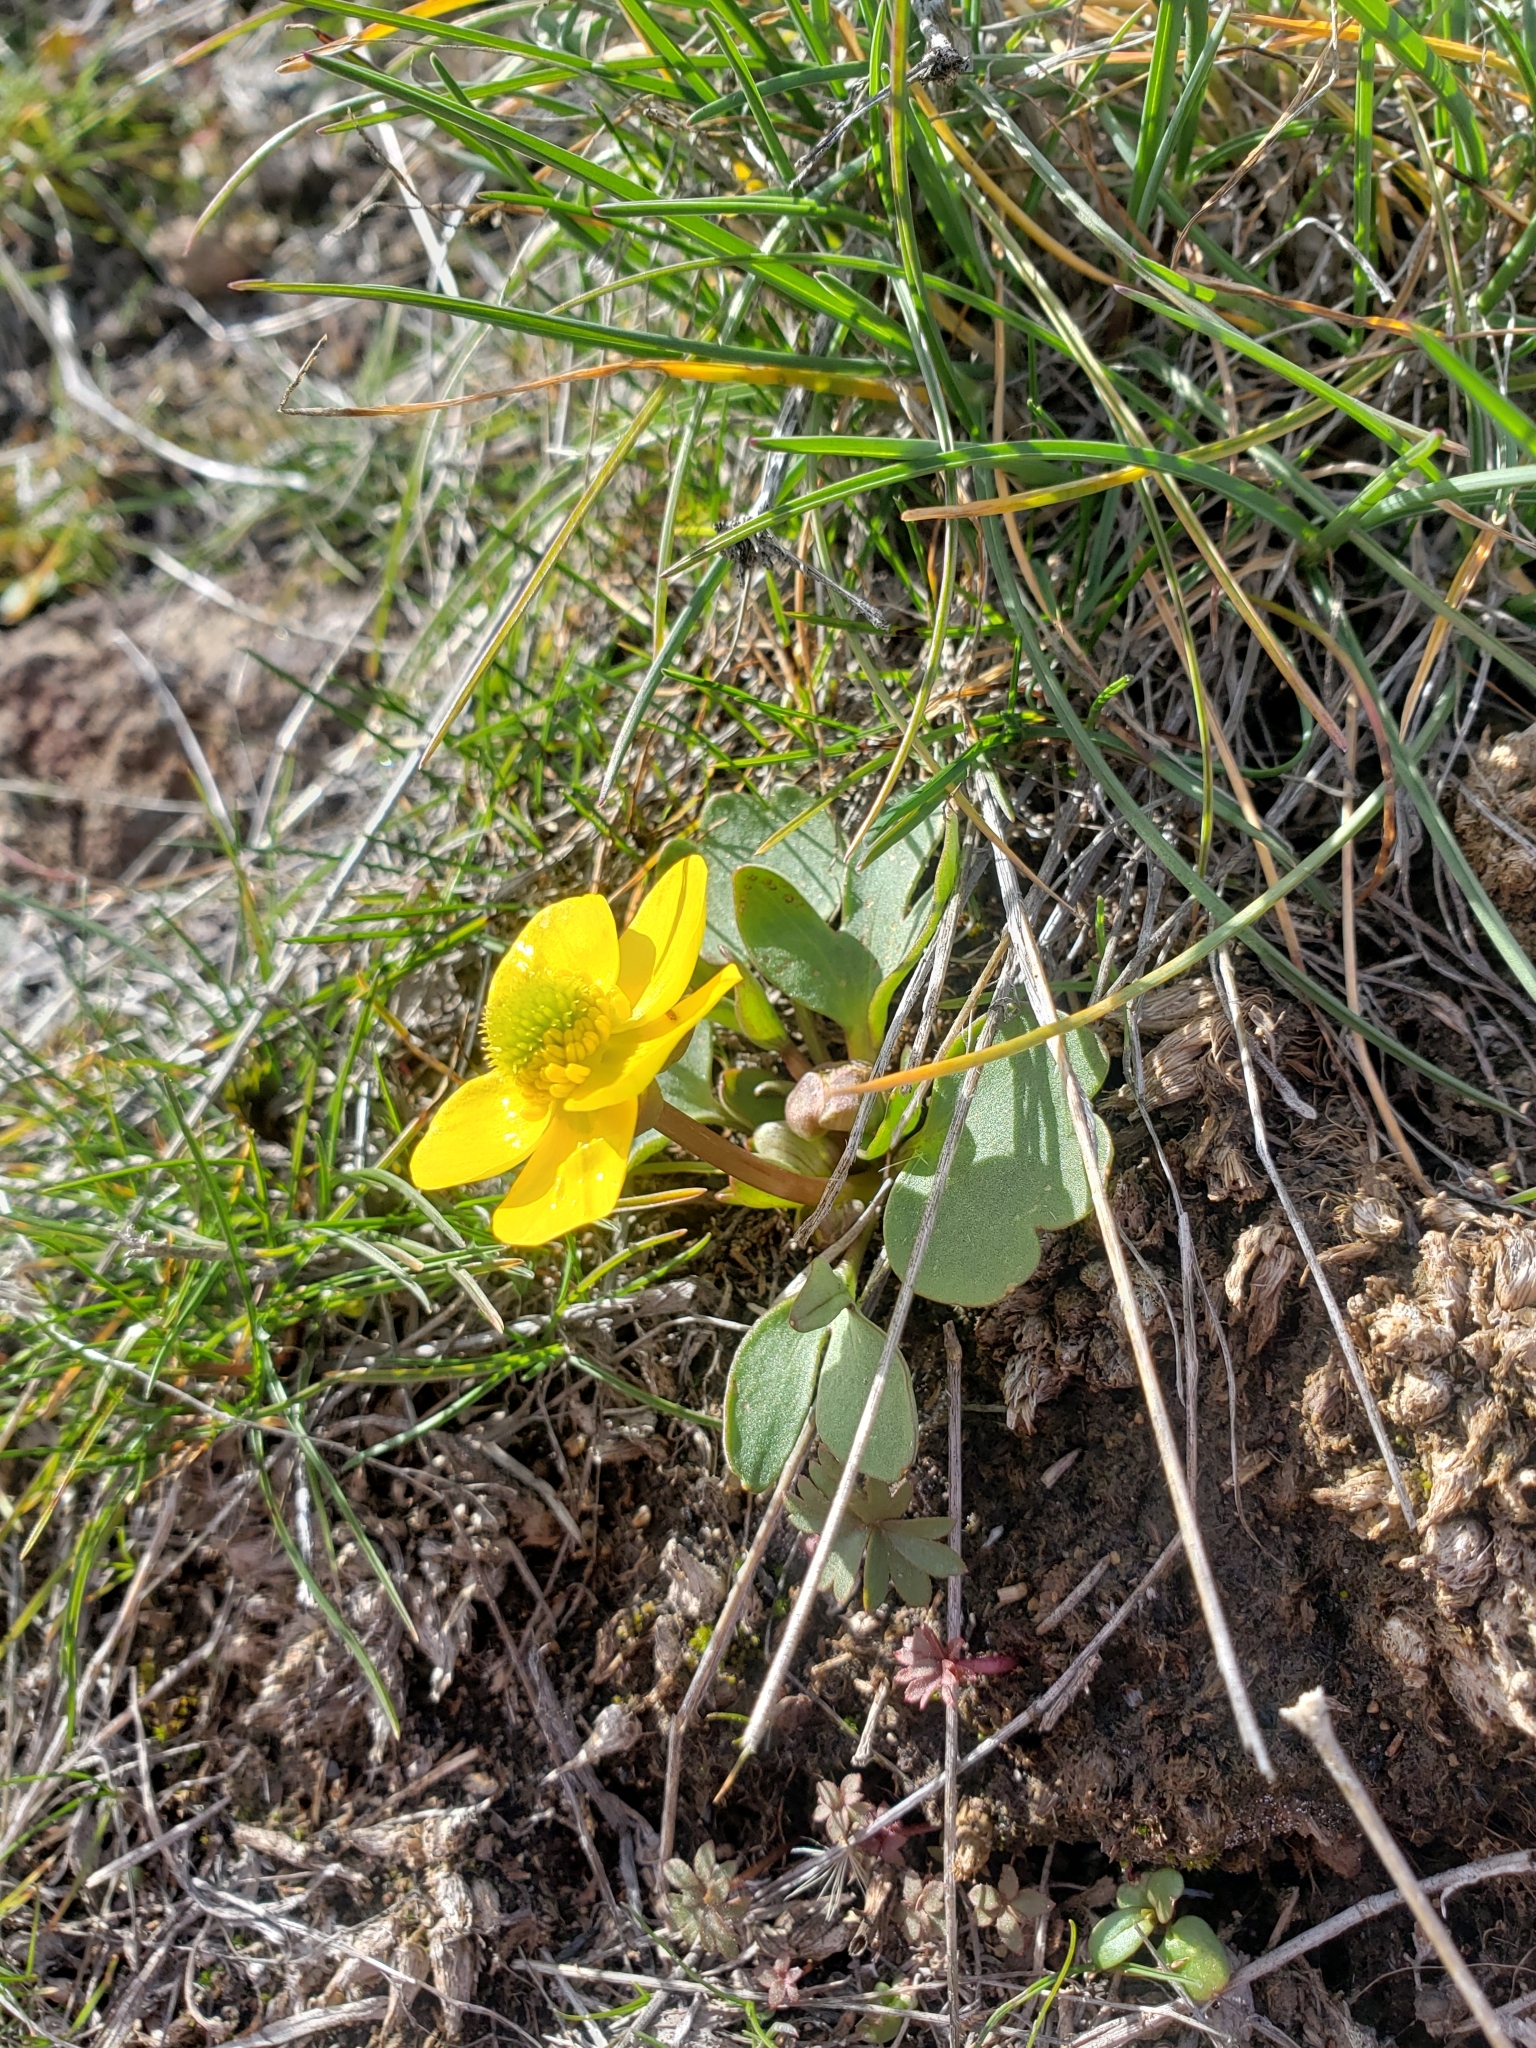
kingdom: Plantae
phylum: Tracheophyta
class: Magnoliopsida
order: Ranunculales
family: Ranunculaceae
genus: Ranunculus
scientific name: Ranunculus glaberrimus
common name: Sagebrush buttercup
